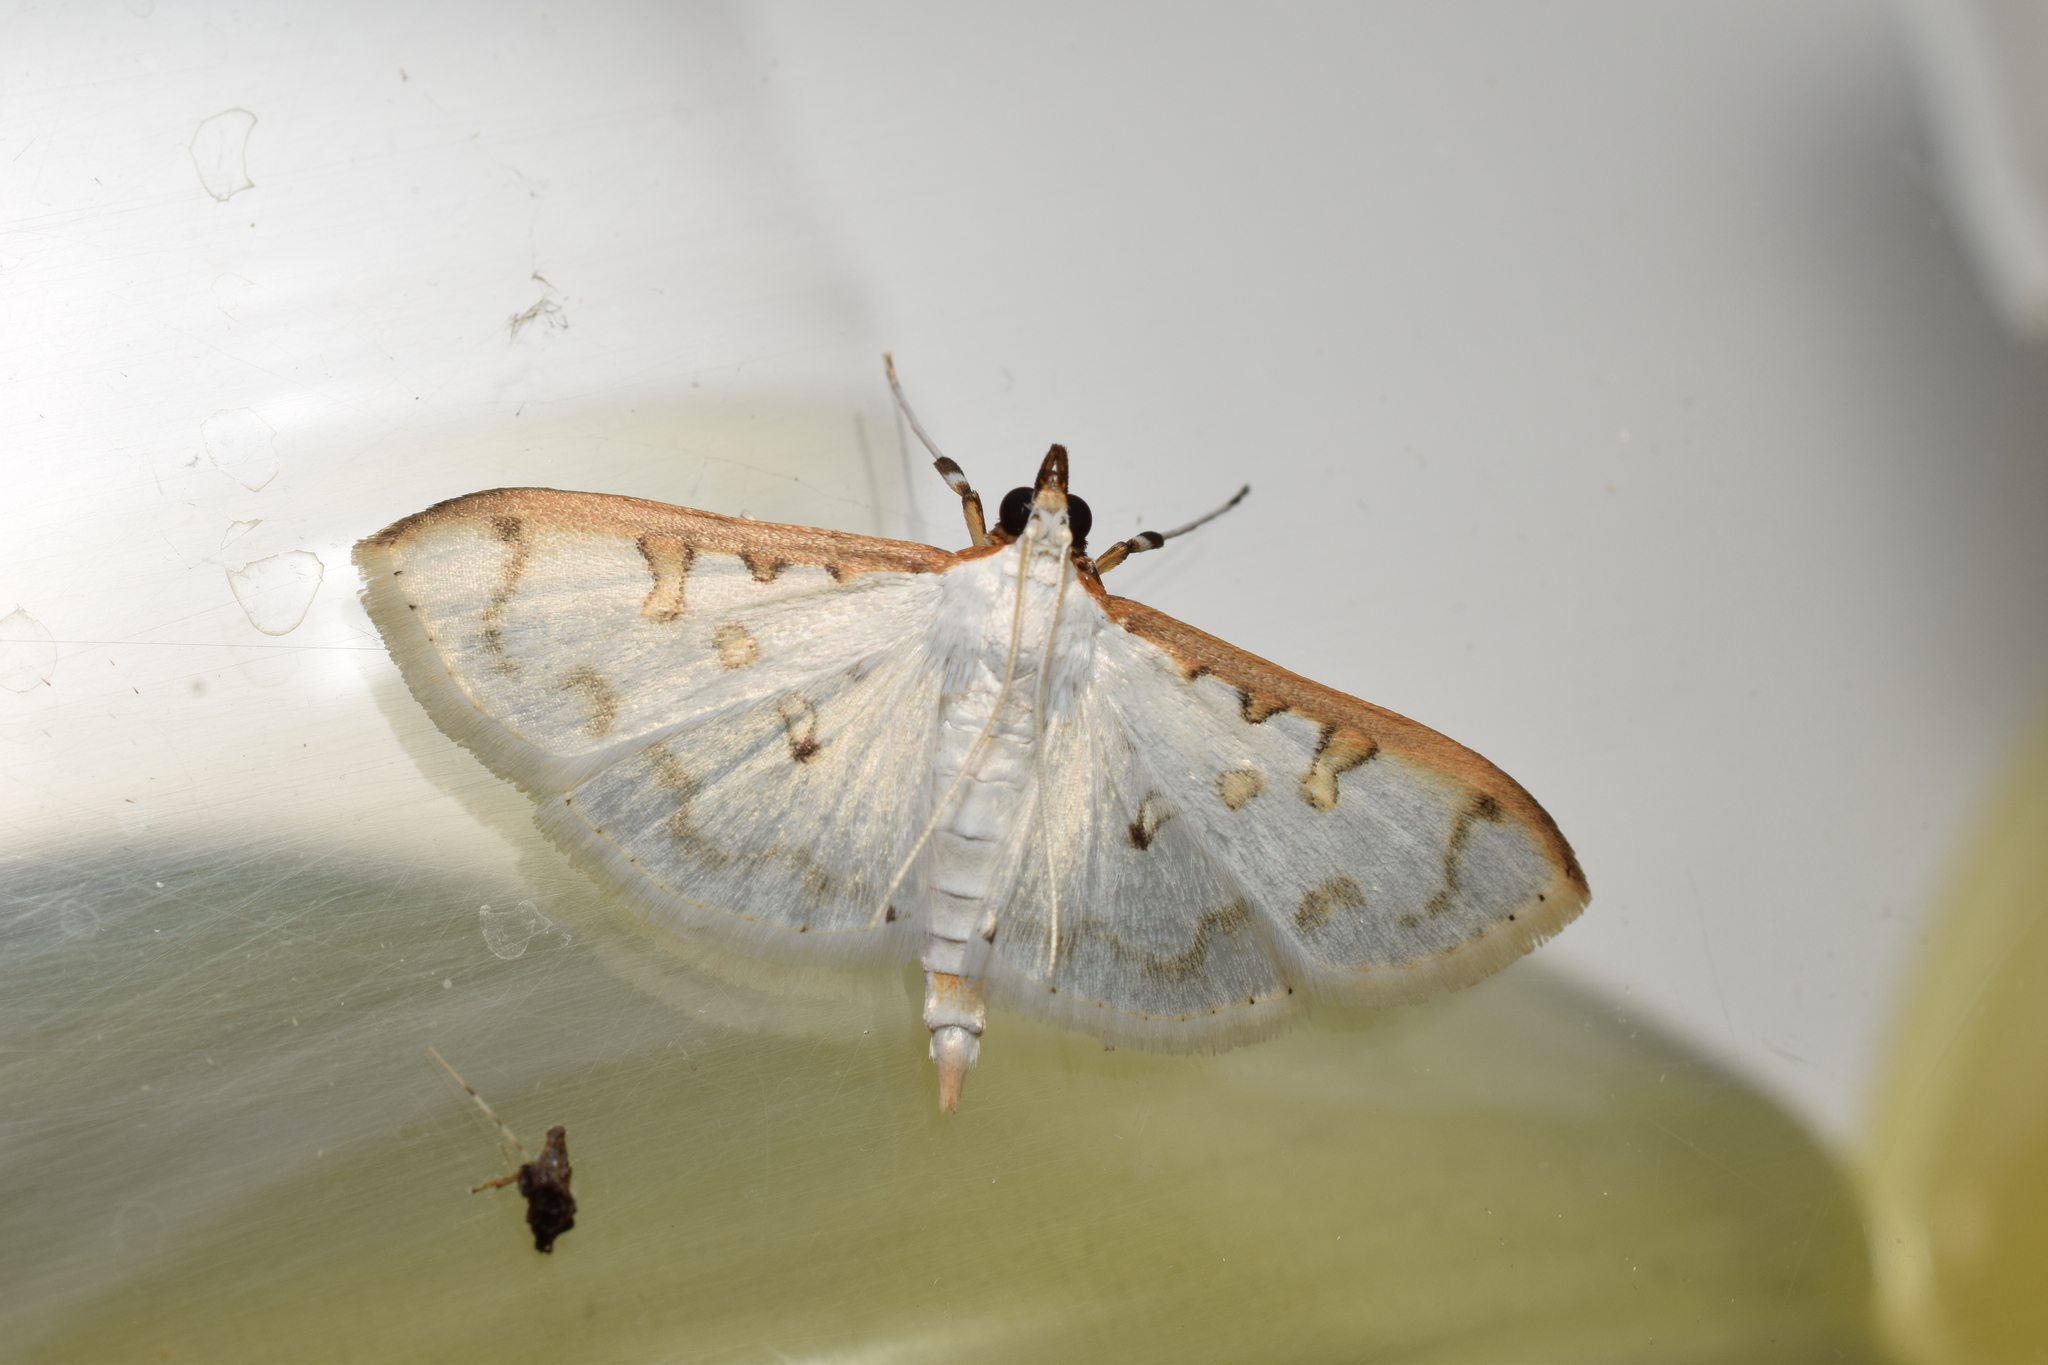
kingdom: Animalia
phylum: Arthropoda
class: Insecta
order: Lepidoptera
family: Crambidae
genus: Palpita
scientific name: Palpita inusitata
